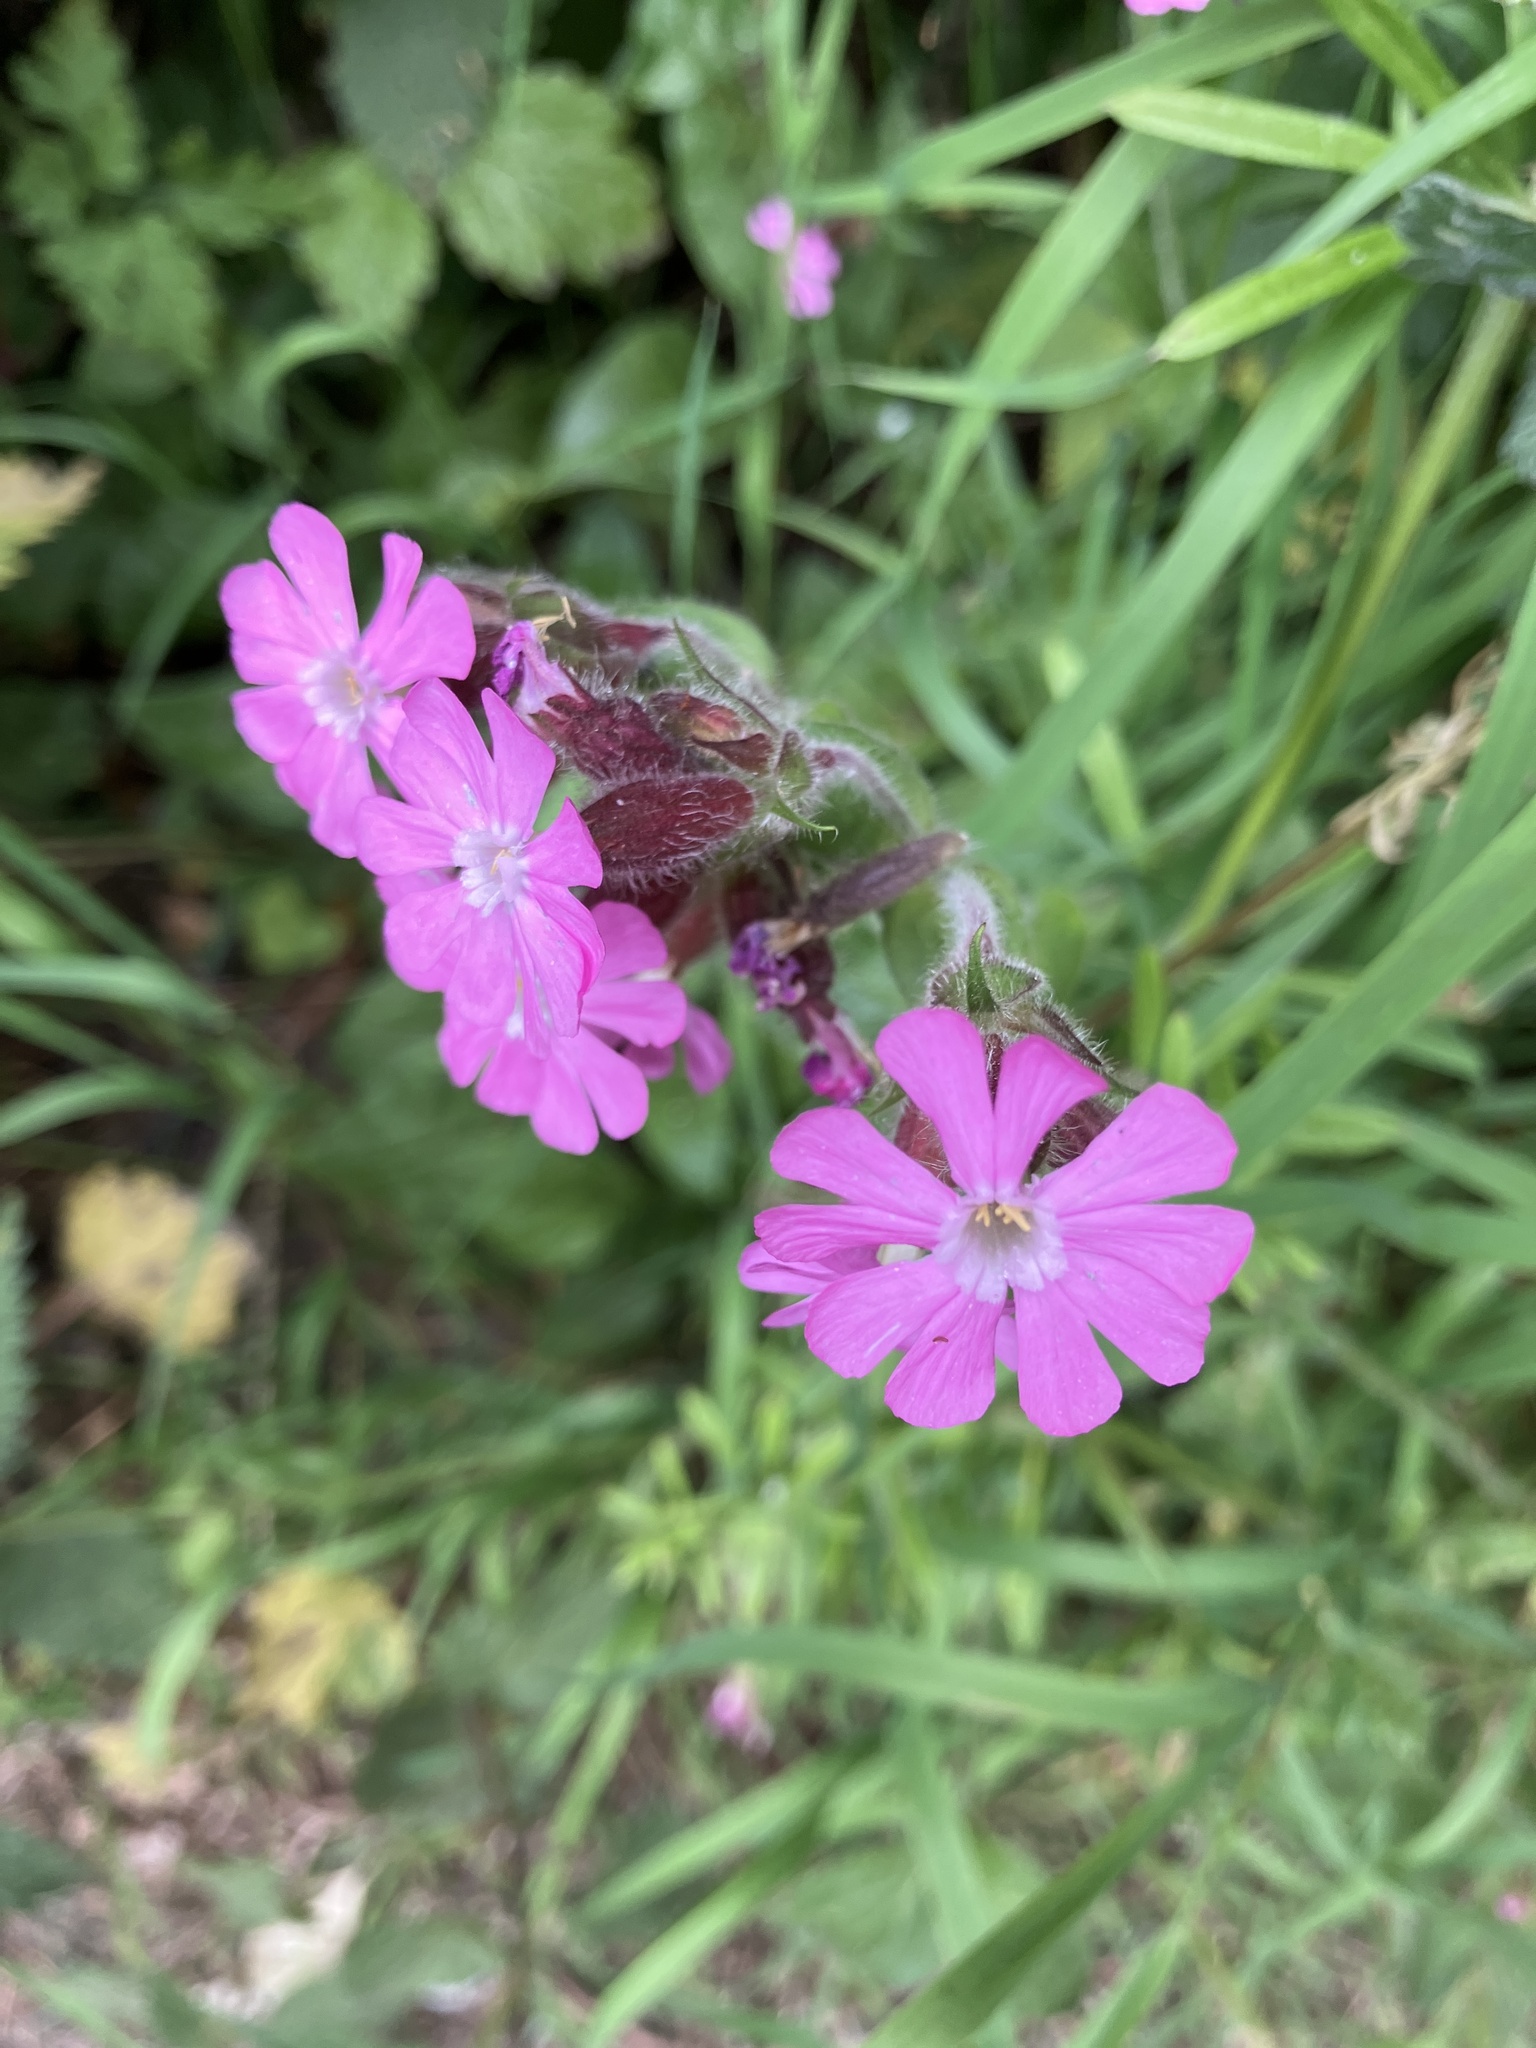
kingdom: Plantae
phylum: Tracheophyta
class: Magnoliopsida
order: Caryophyllales
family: Caryophyllaceae
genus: Silene
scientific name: Silene dioica
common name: Red campion
